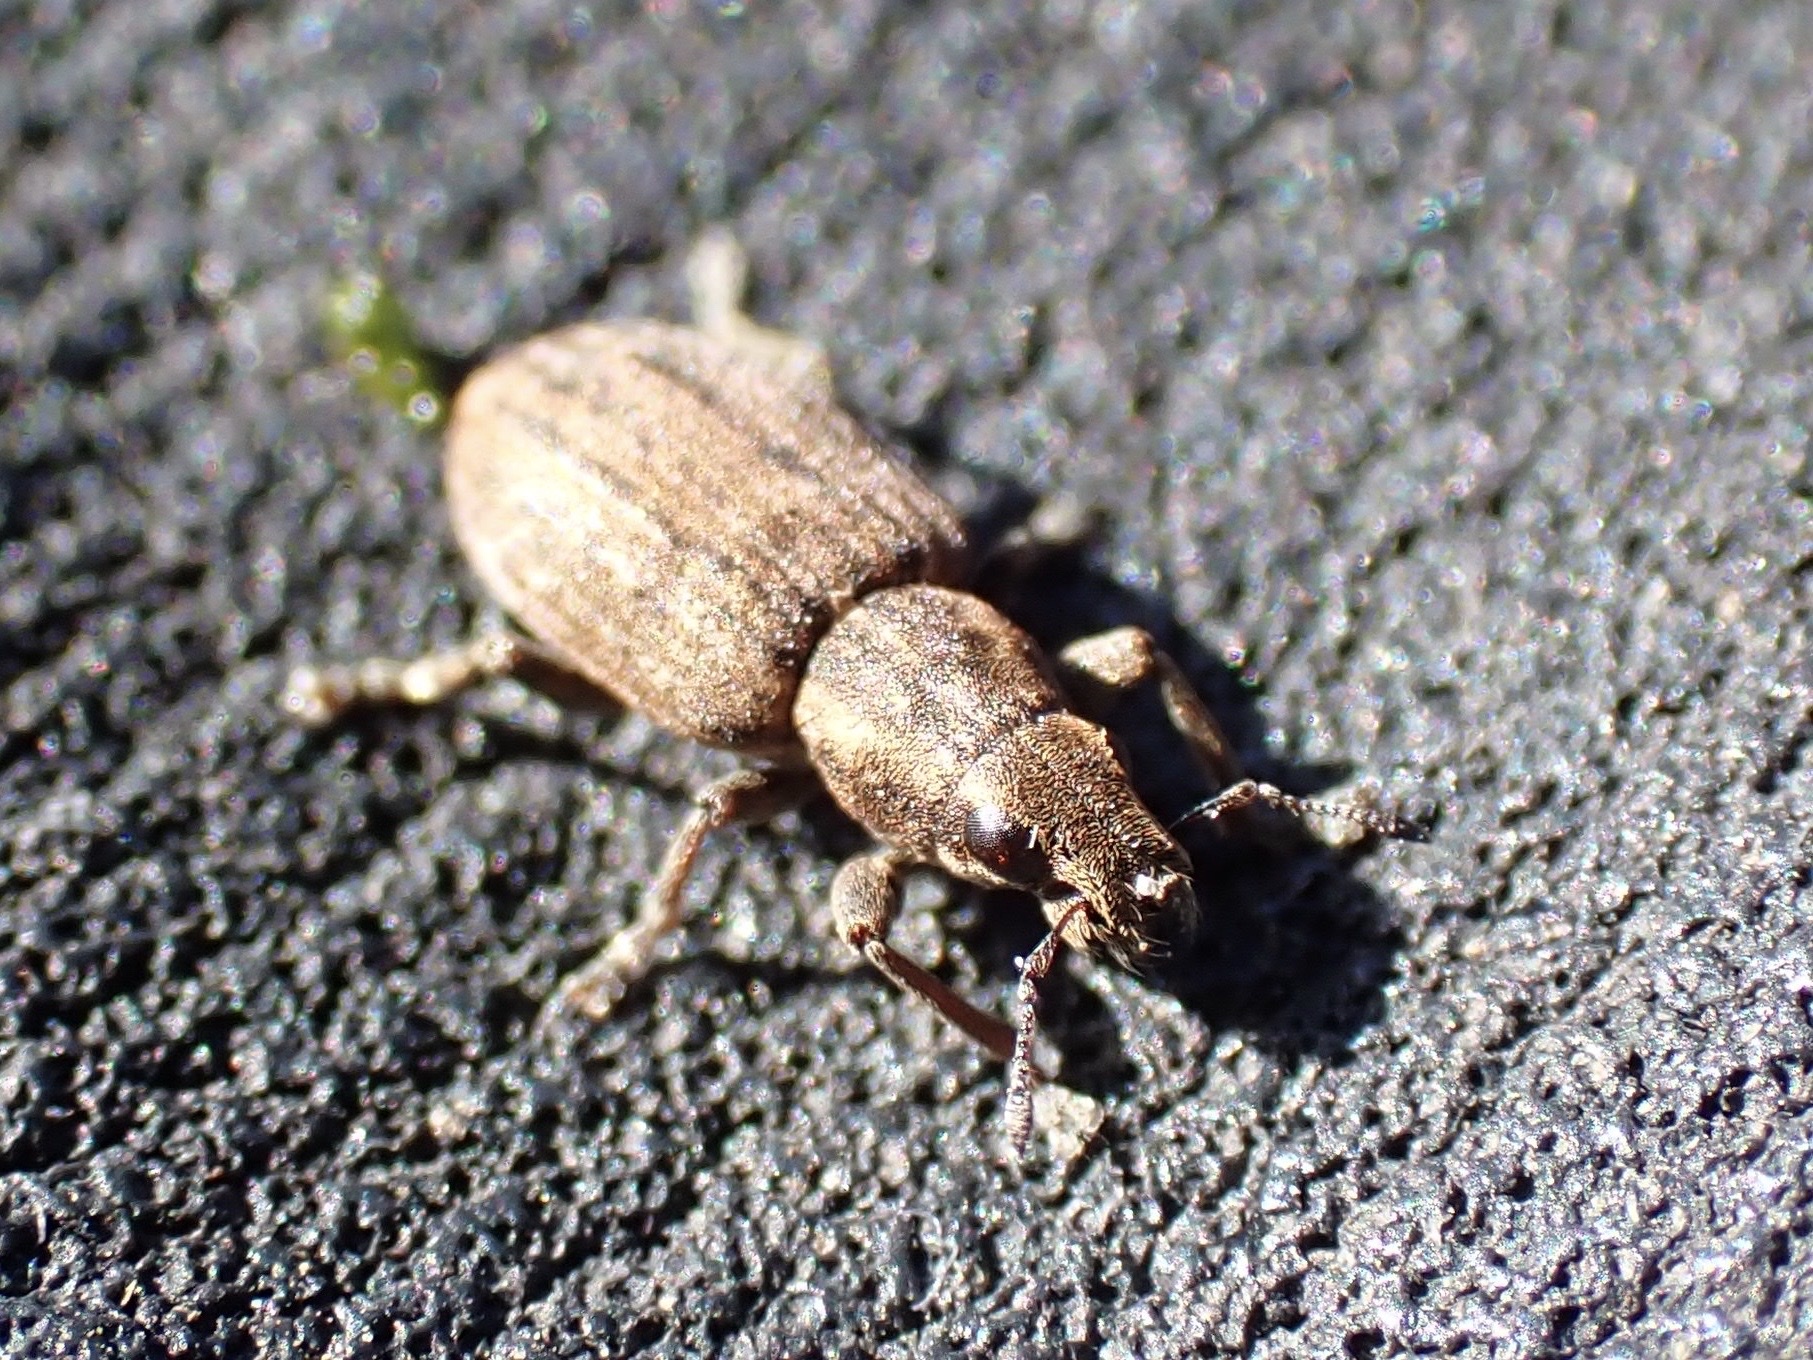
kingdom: Animalia
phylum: Arthropoda
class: Insecta
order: Coleoptera
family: Curculionidae
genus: Sitona
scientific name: Sitona obsoletus
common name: Weevil
